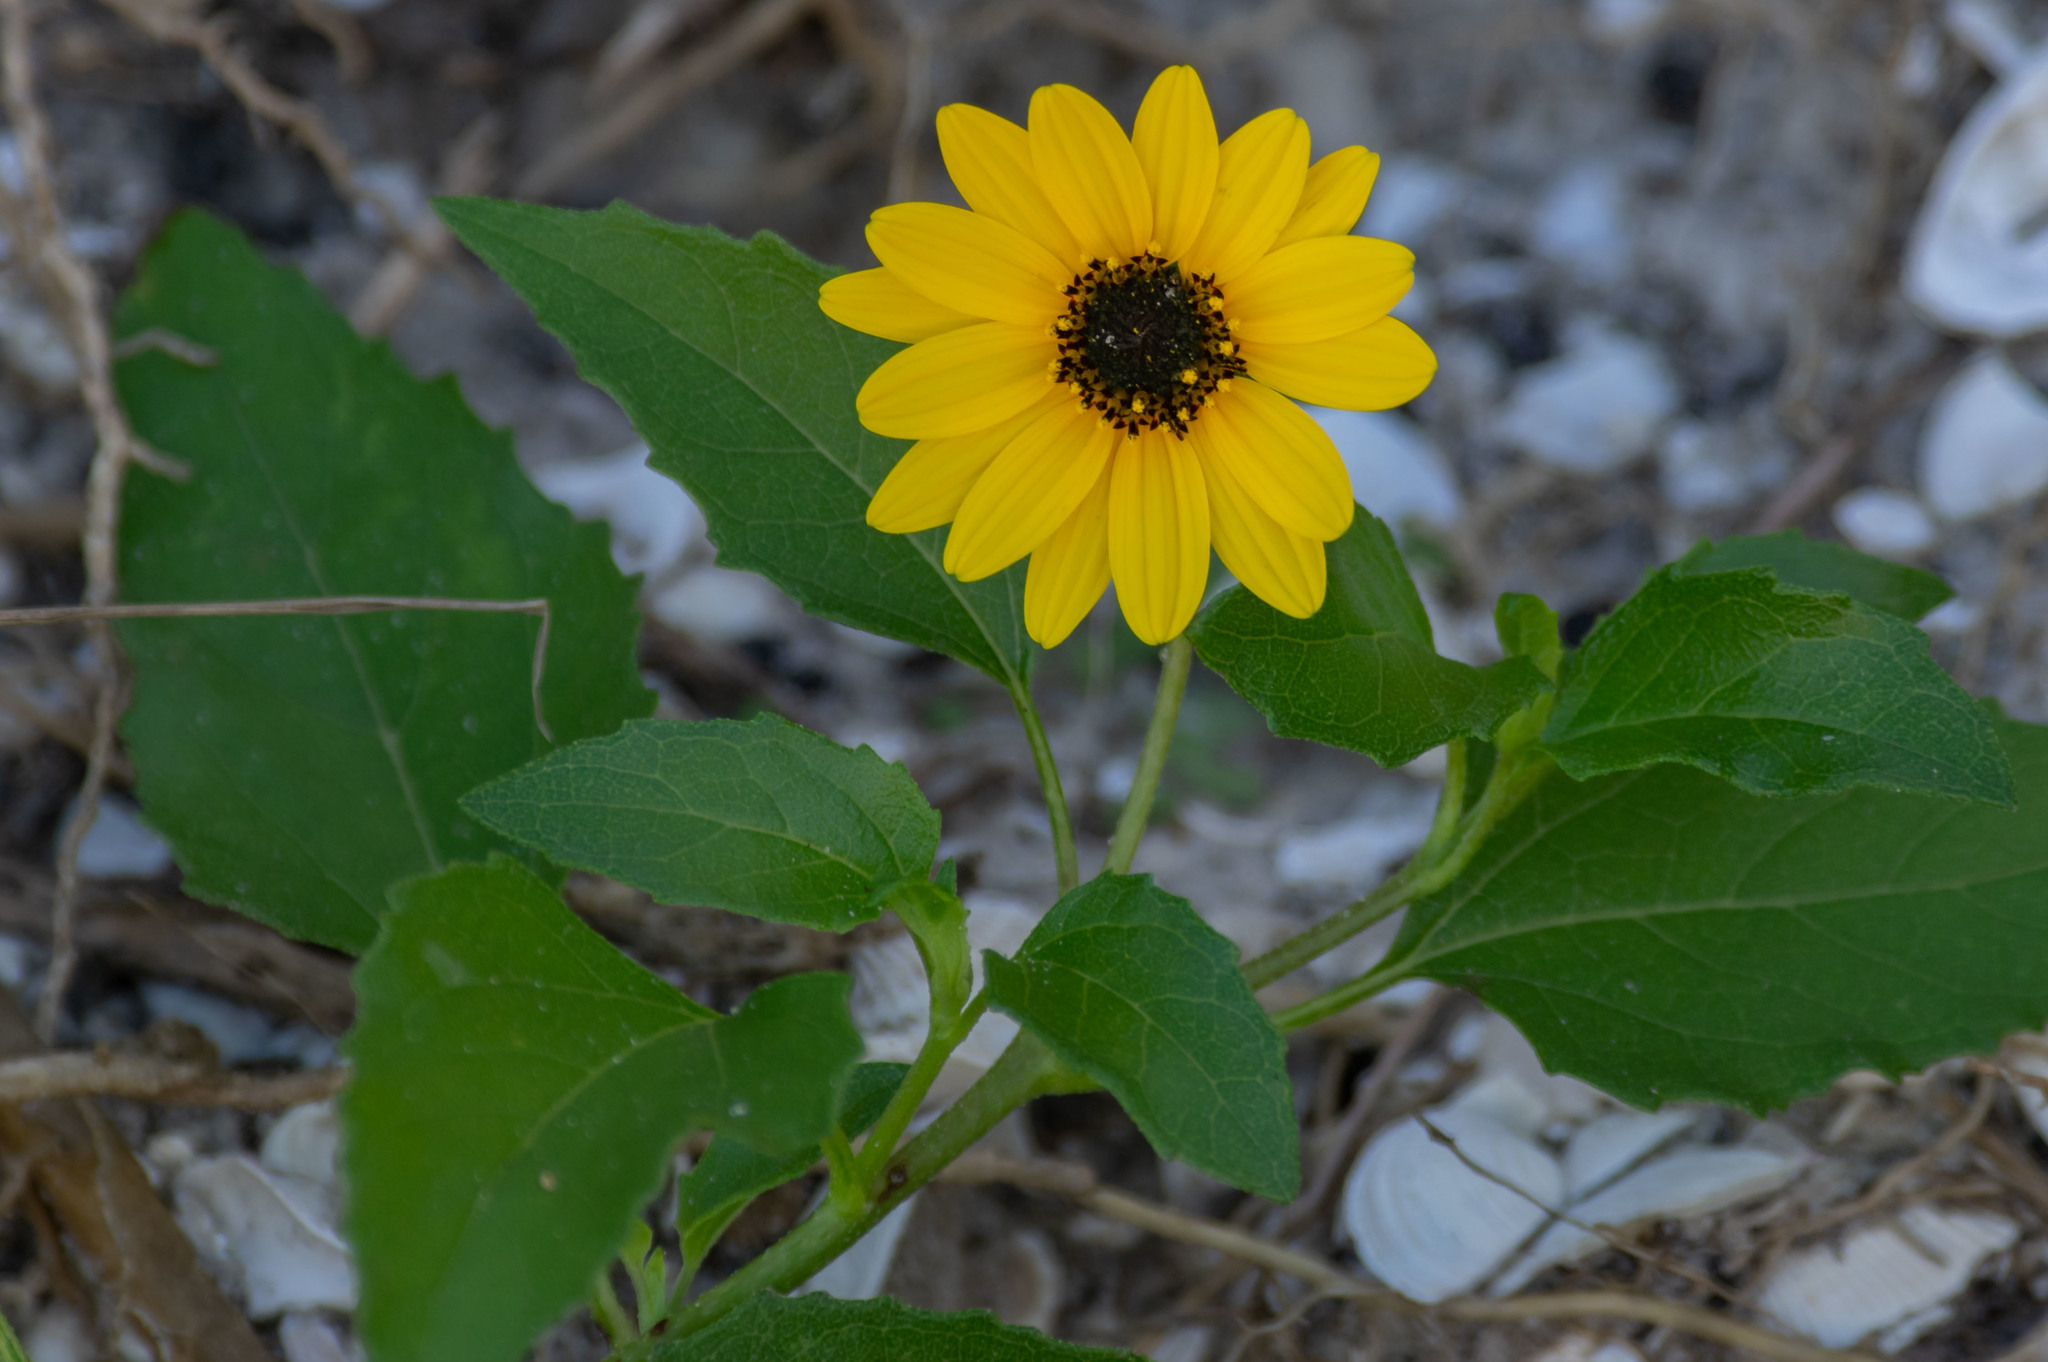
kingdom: Plantae
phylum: Tracheophyta
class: Magnoliopsida
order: Asterales
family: Asteraceae
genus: Helianthus
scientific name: Helianthus debilis
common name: Weak sunflower
